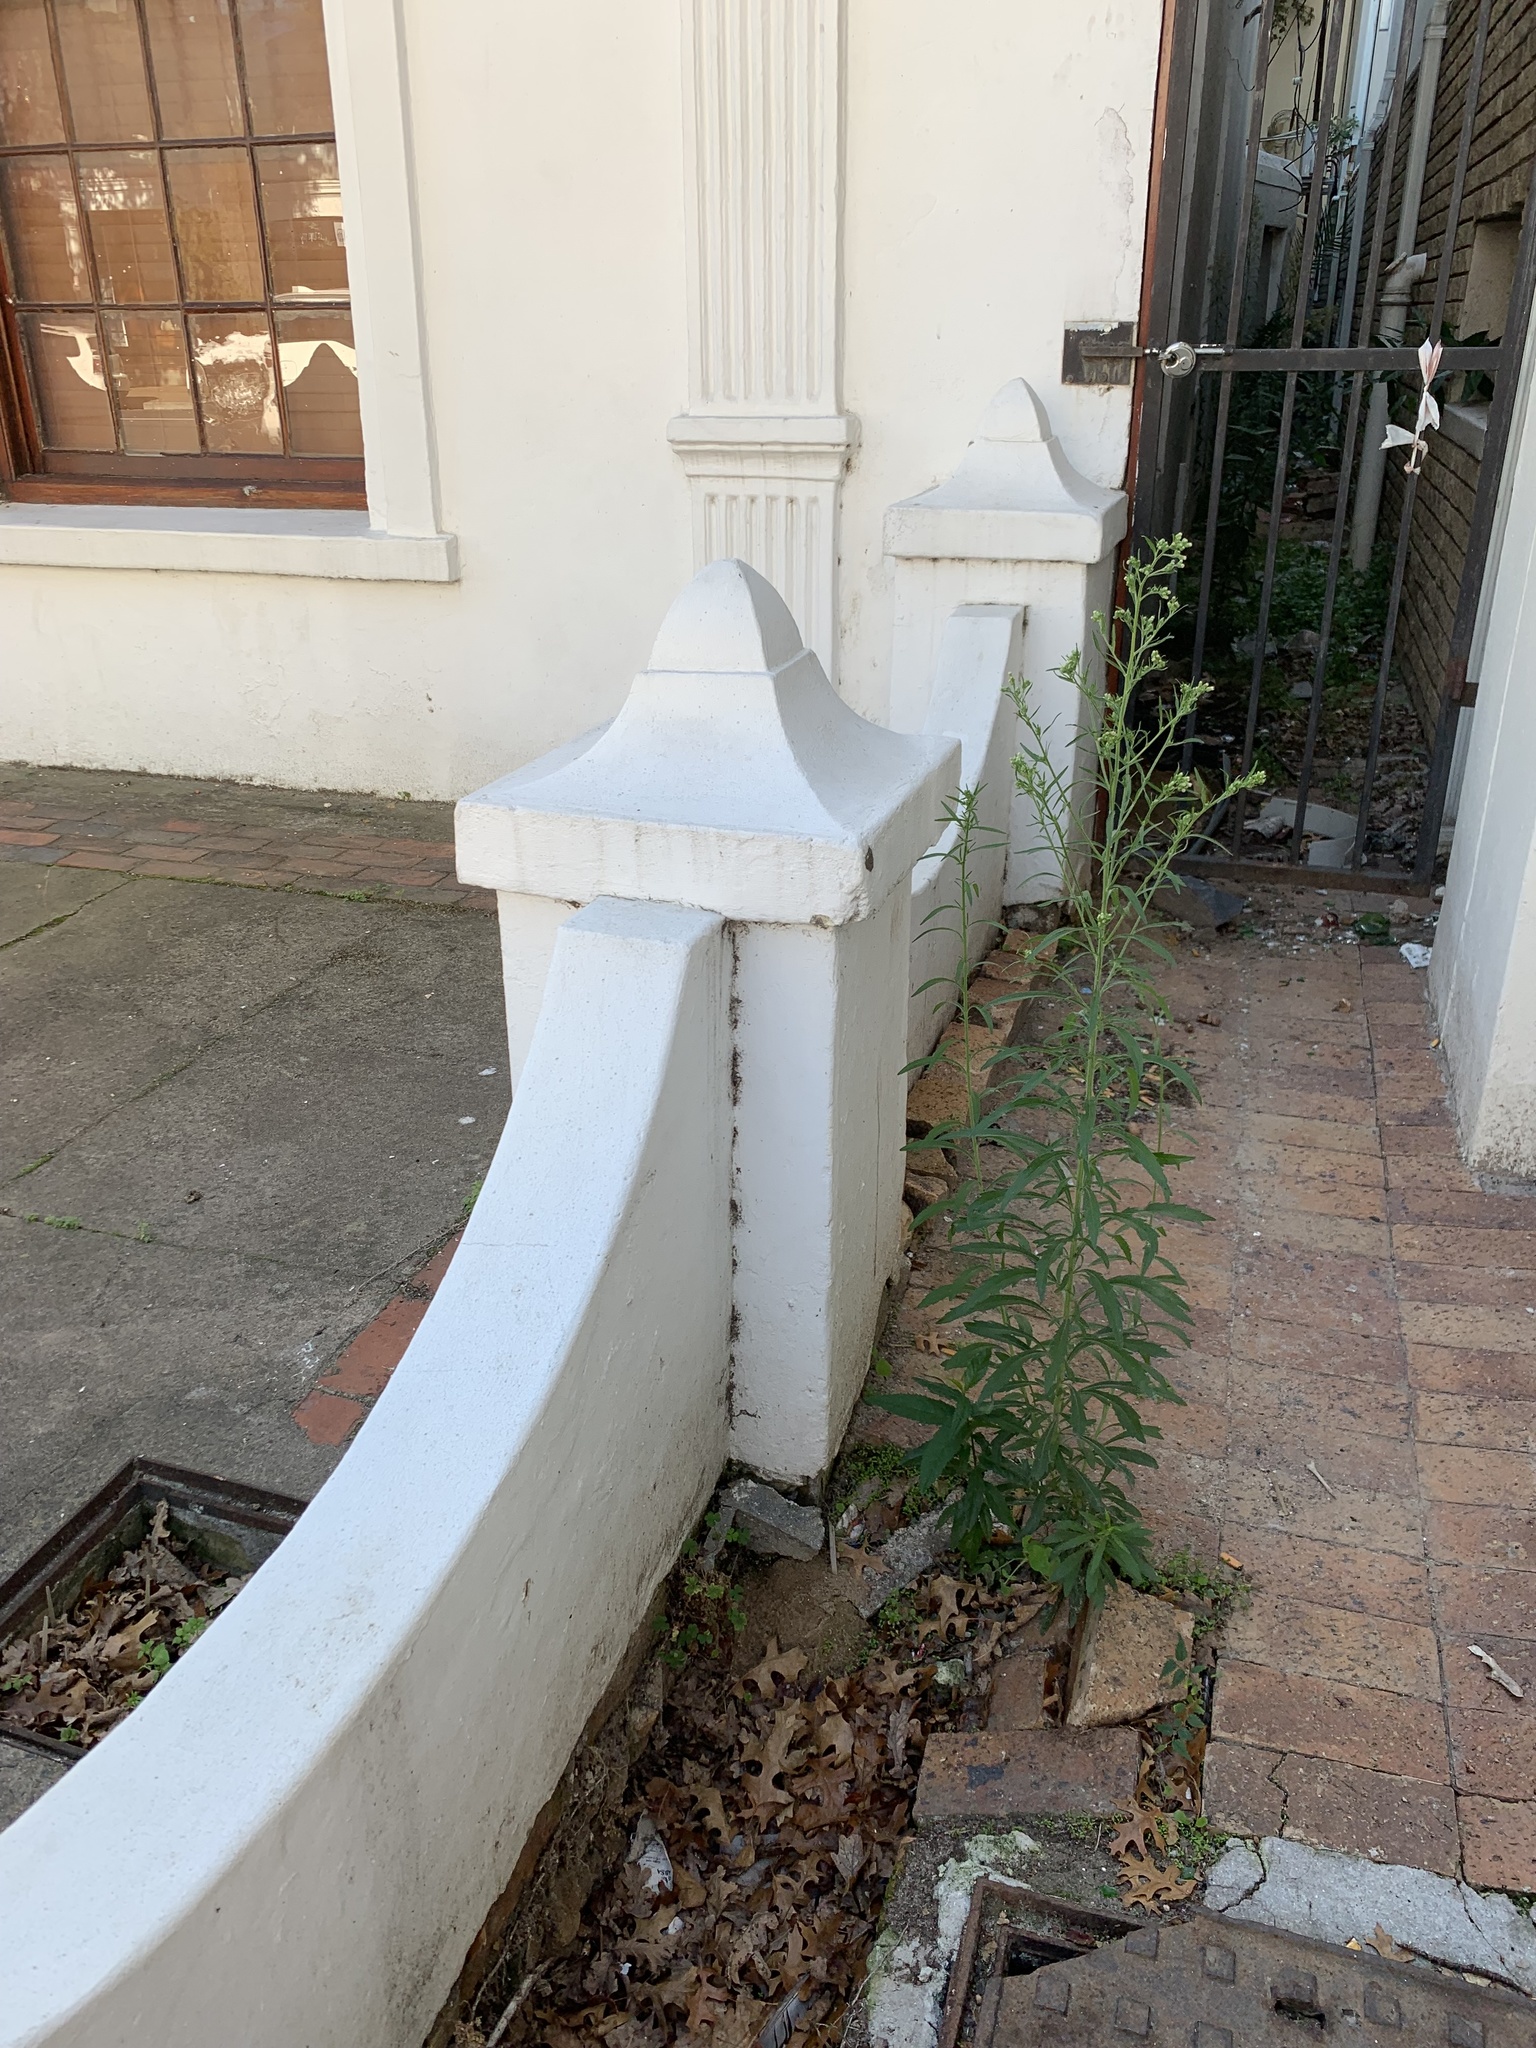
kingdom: Plantae
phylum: Tracheophyta
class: Magnoliopsida
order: Asterales
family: Asteraceae
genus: Erigeron
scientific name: Erigeron sumatrensis
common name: Daisy
